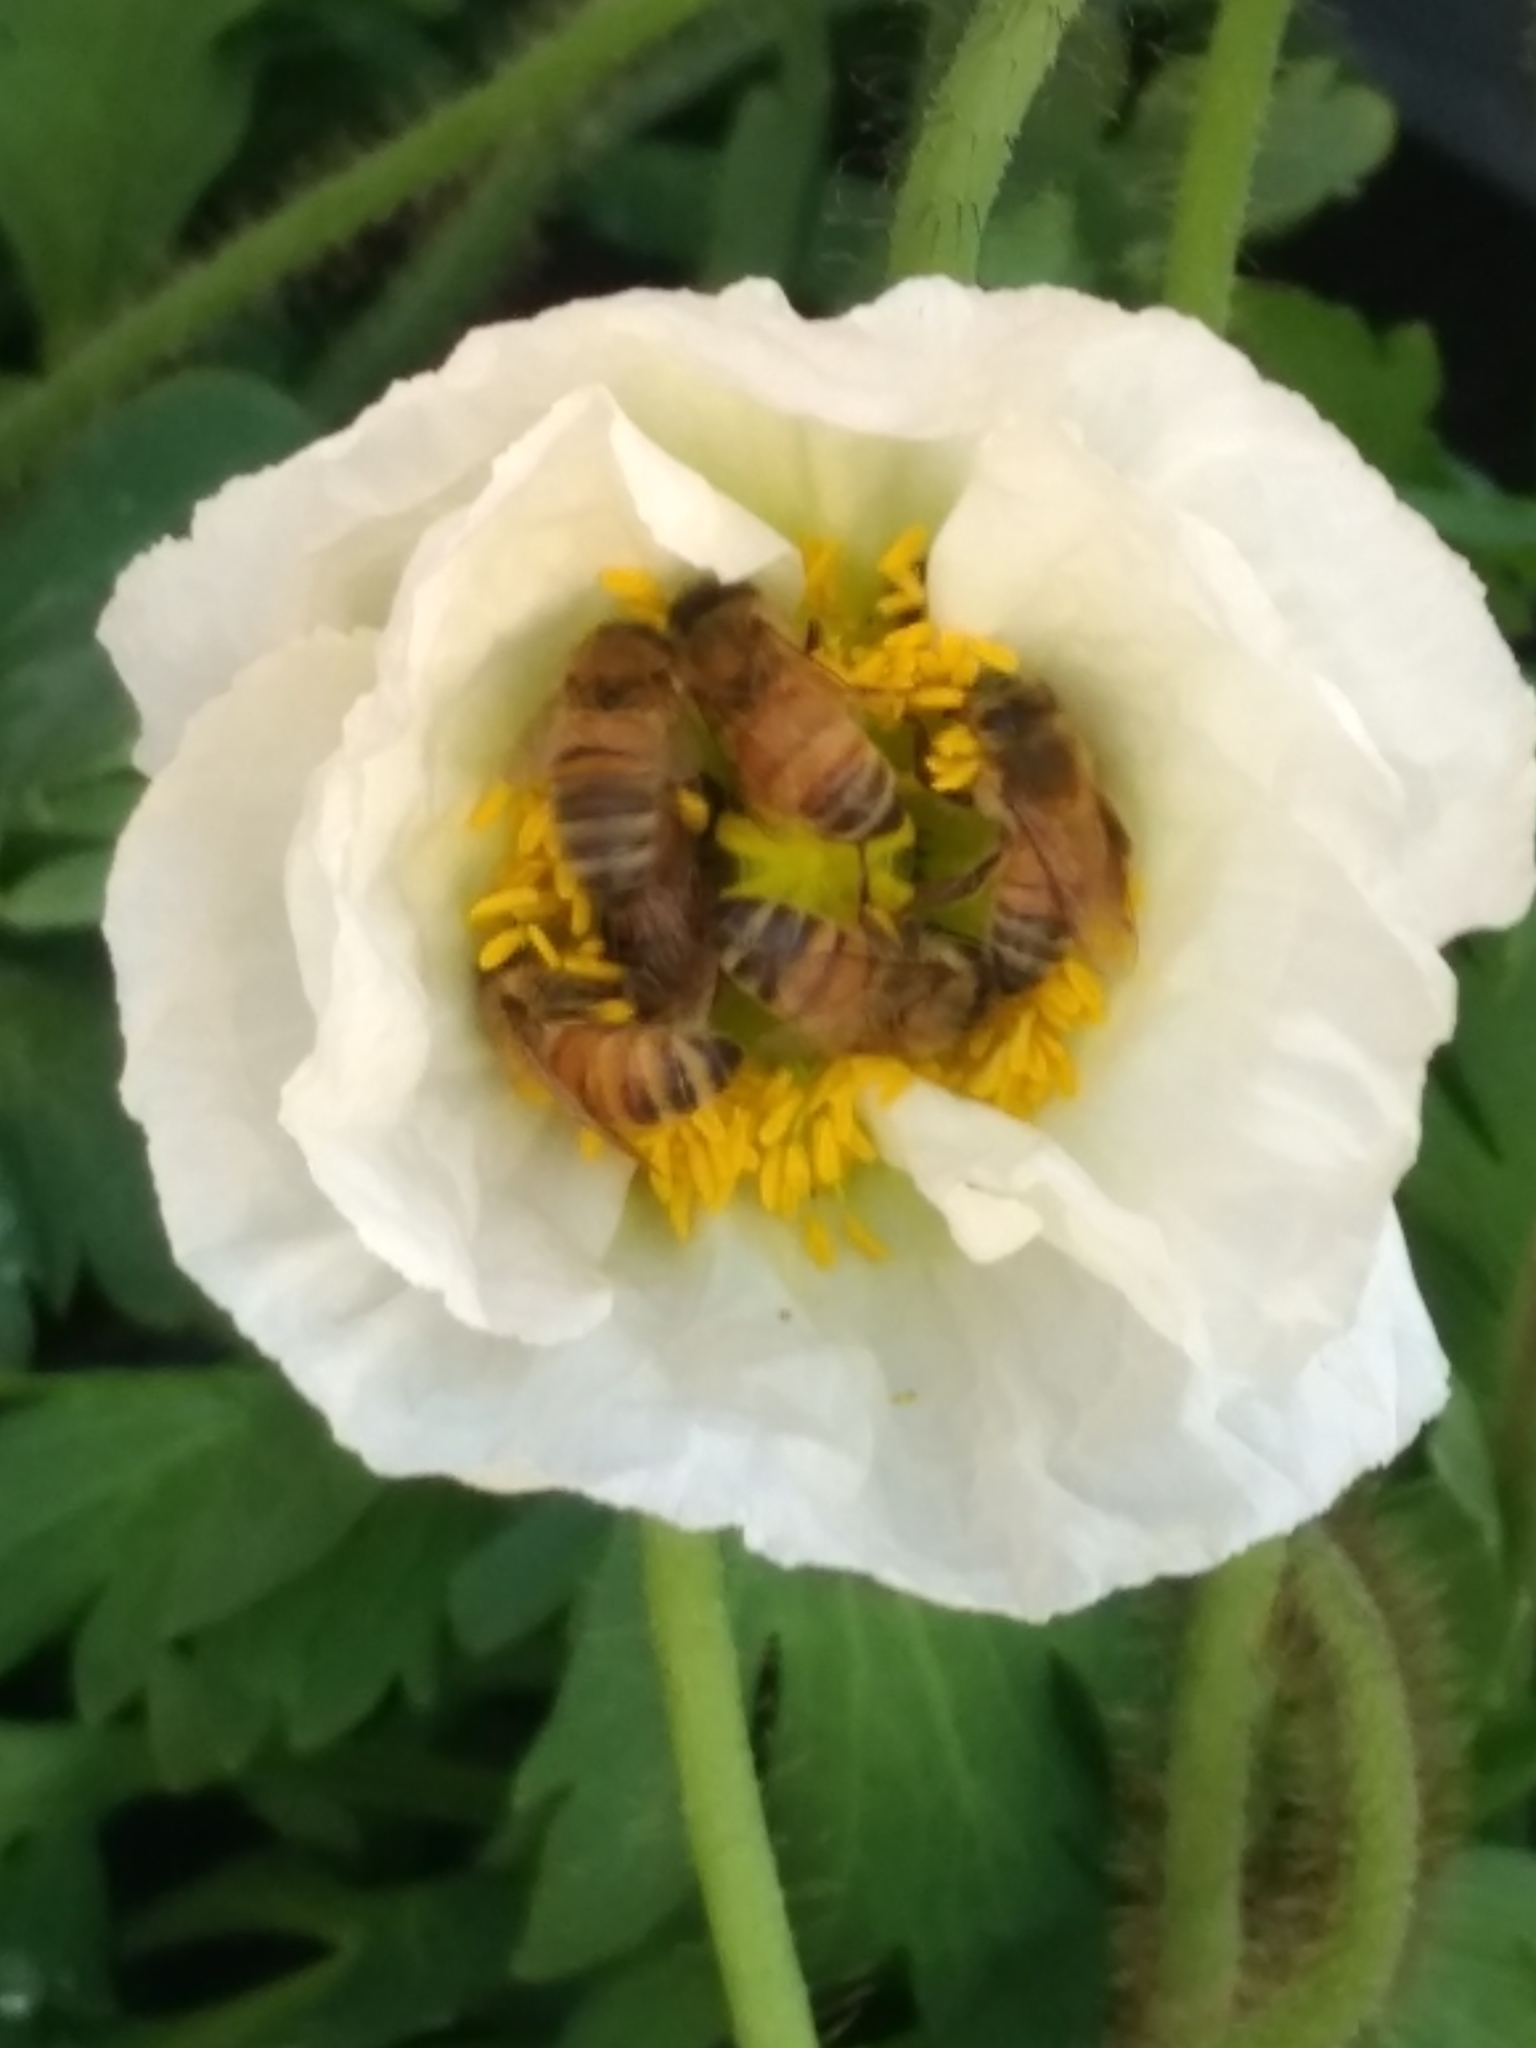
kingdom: Animalia
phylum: Arthropoda
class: Insecta
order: Hymenoptera
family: Apidae
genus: Apis
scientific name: Apis mellifera
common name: Honey bee
